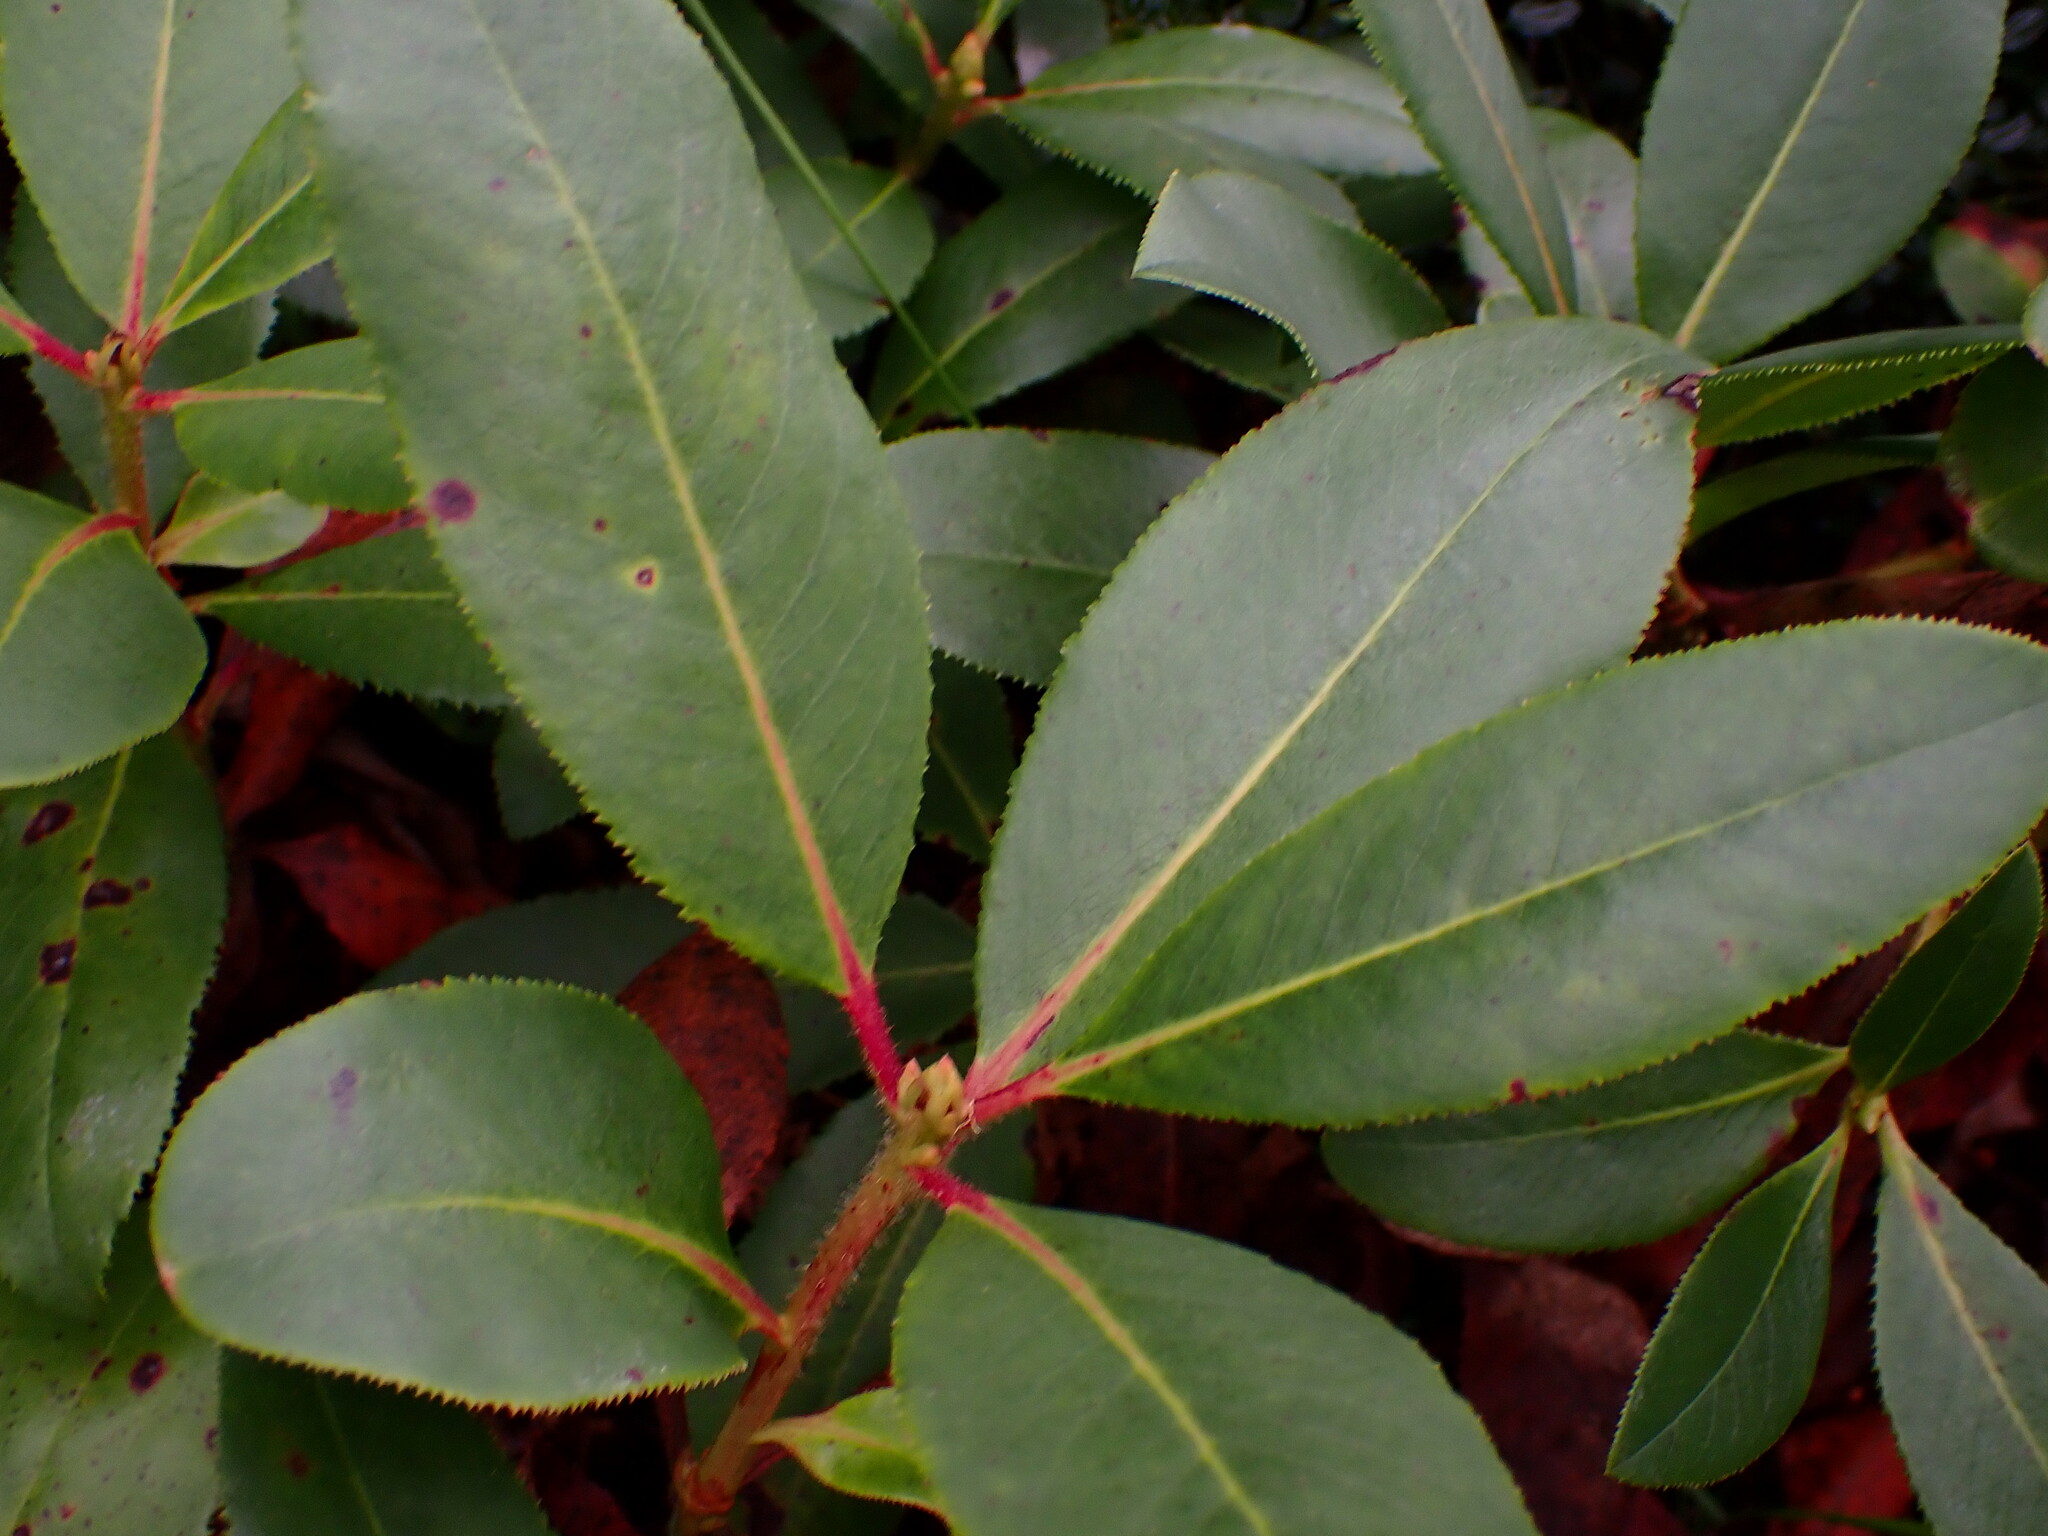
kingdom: Plantae
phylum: Tracheophyta
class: Magnoliopsida
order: Ericales
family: Ericaceae
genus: Arbutus
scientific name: Arbutus menziesii
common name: Pacific madrone
